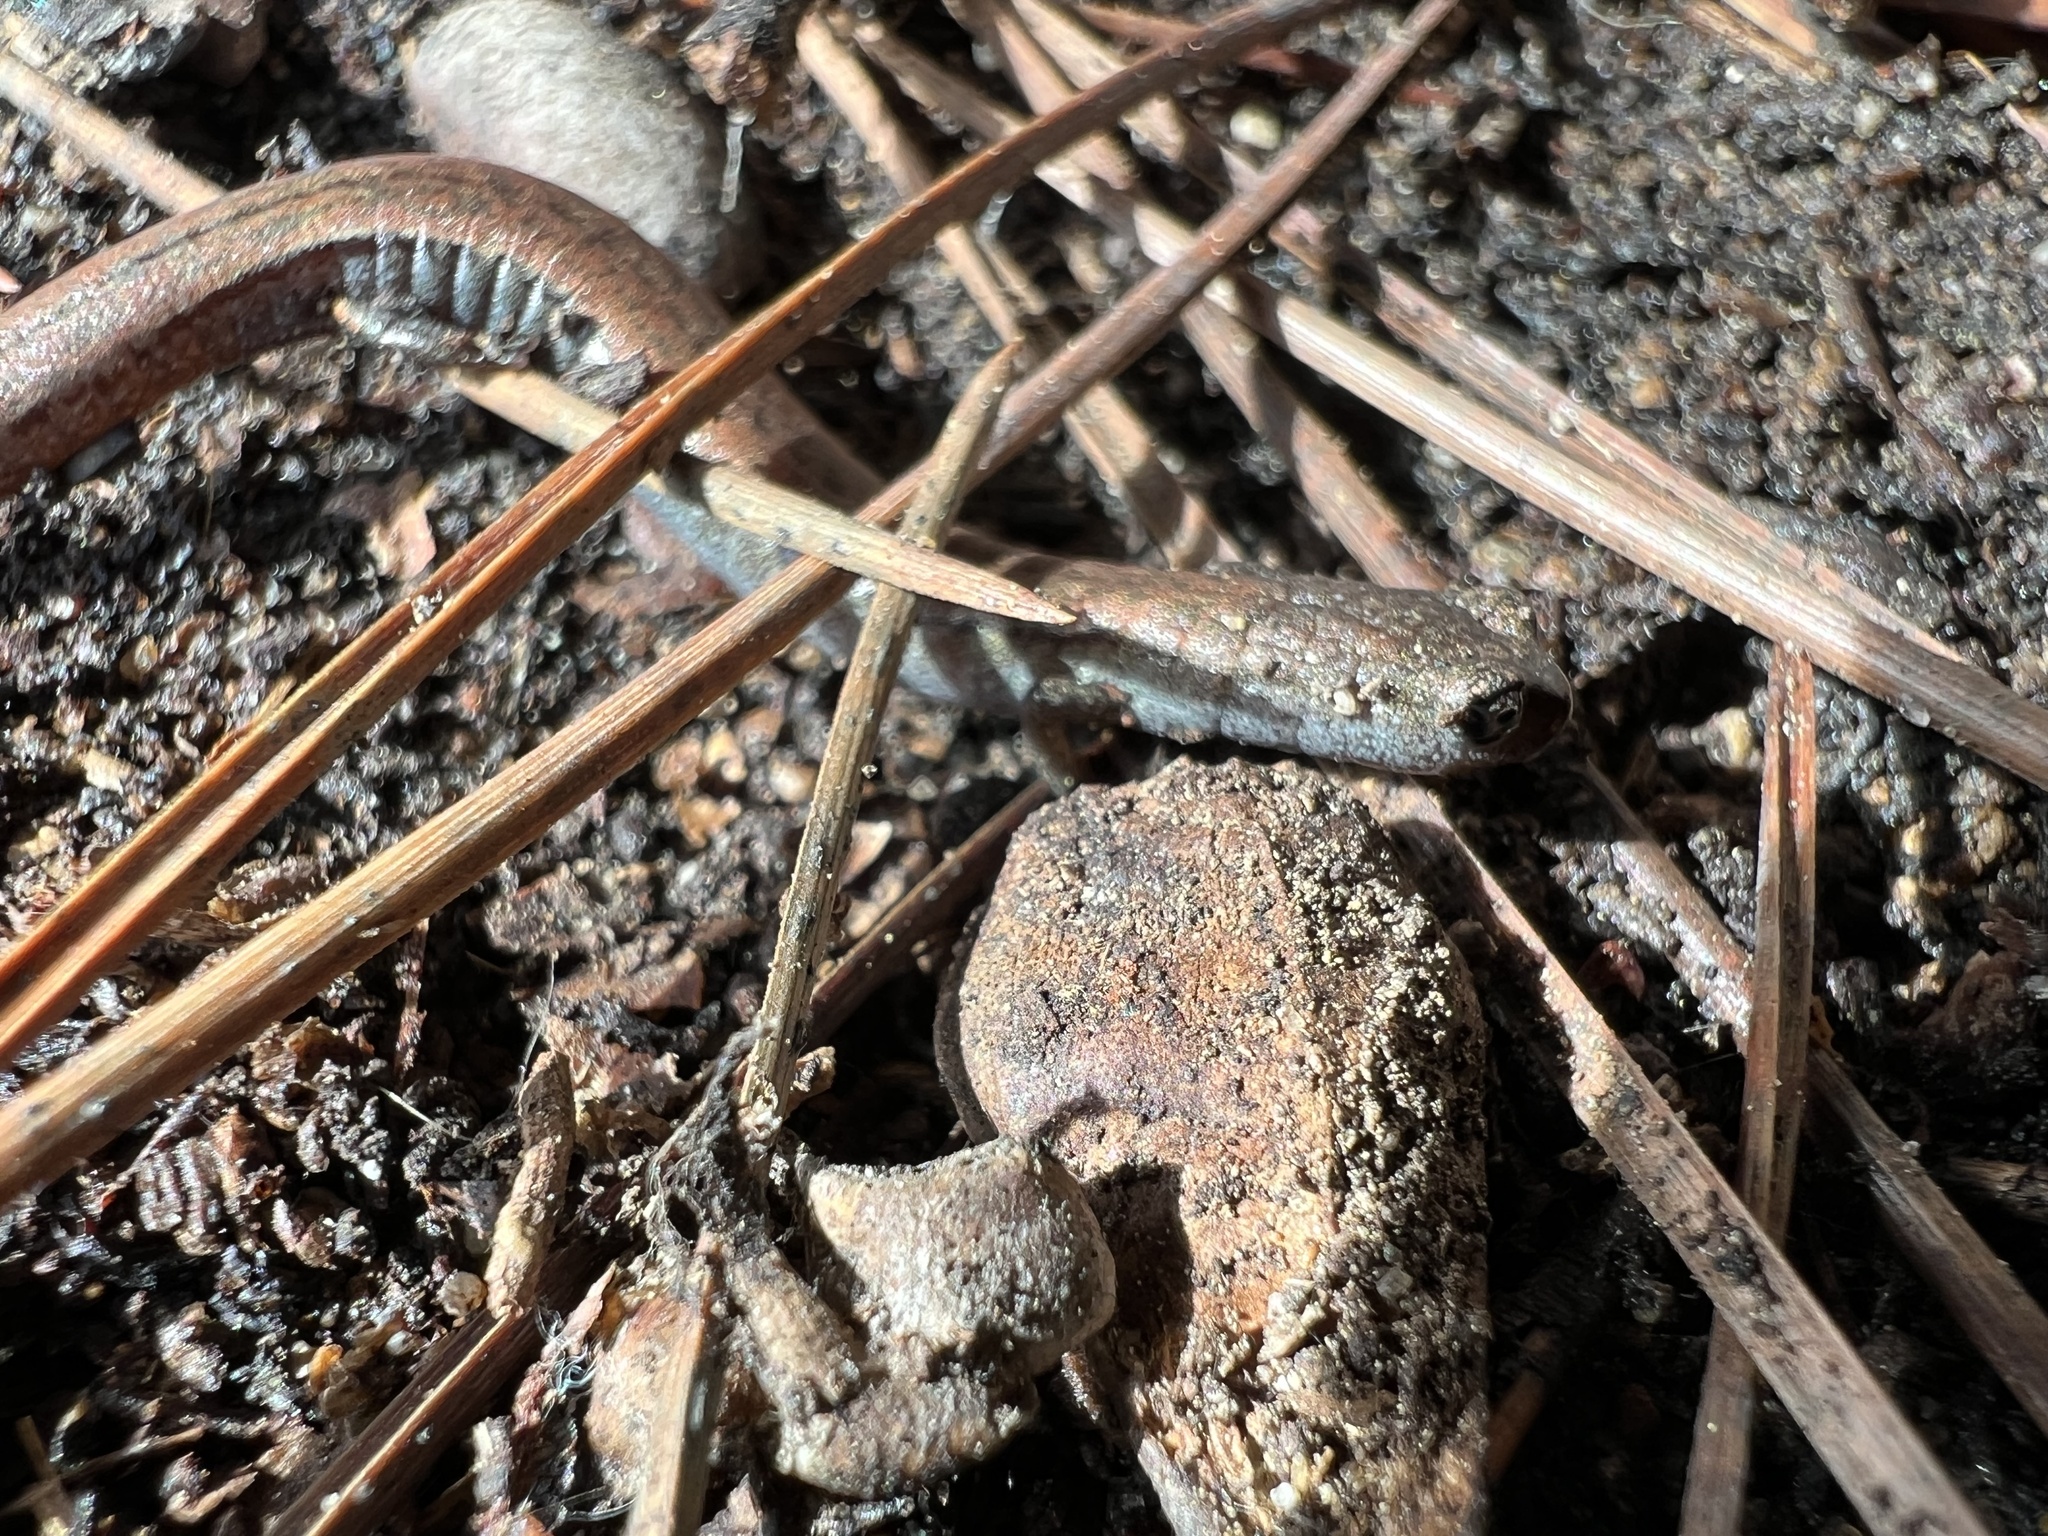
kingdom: Animalia
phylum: Chordata
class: Amphibia
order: Caudata
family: Plethodontidae
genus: Batrachoseps
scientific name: Batrachoseps gavilanensis
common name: Gabilan mountains slender salamander
